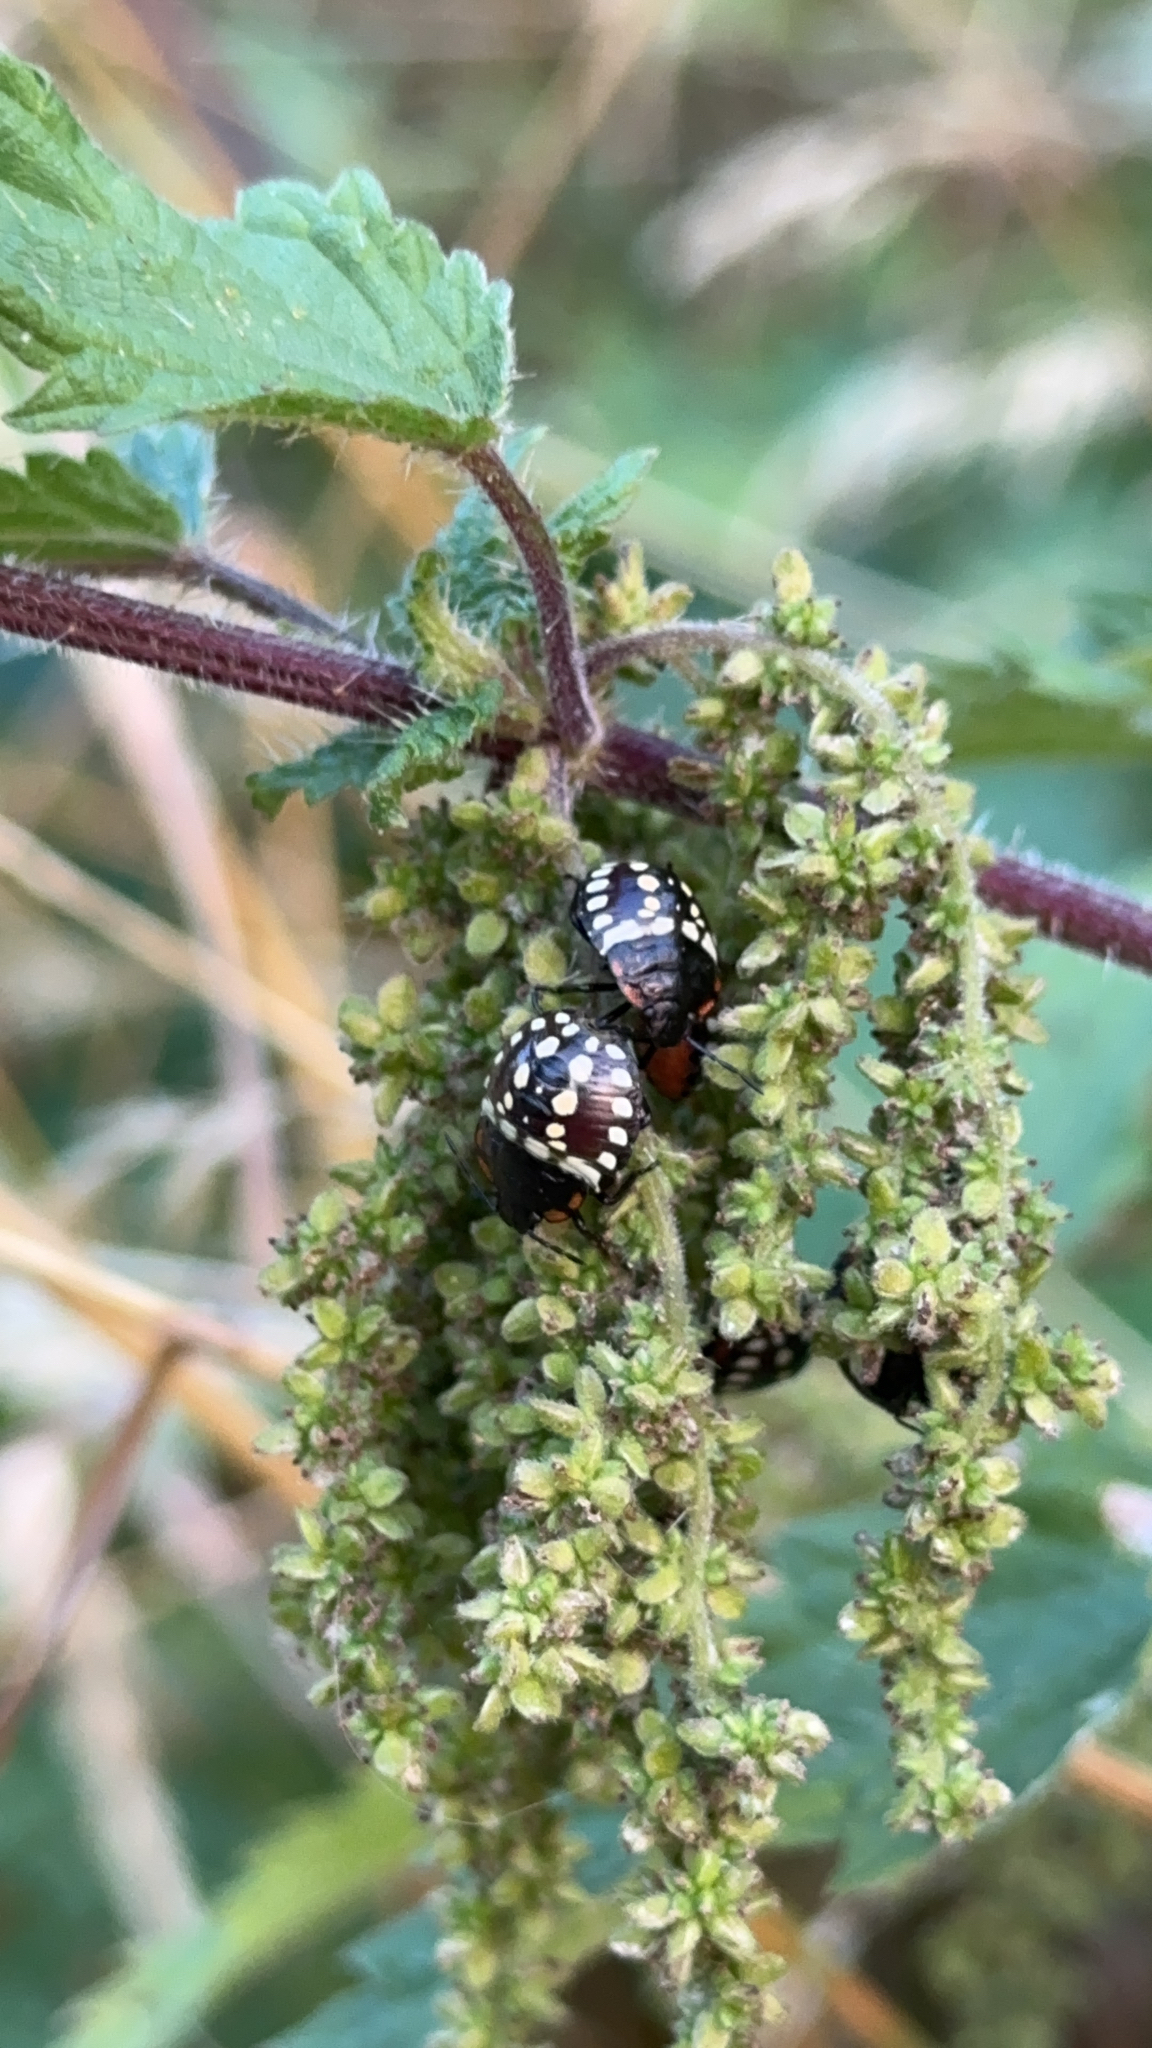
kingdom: Animalia
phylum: Arthropoda
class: Insecta
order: Hemiptera
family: Pentatomidae
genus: Nezara
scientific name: Nezara viridula
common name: Southern green stink bug
